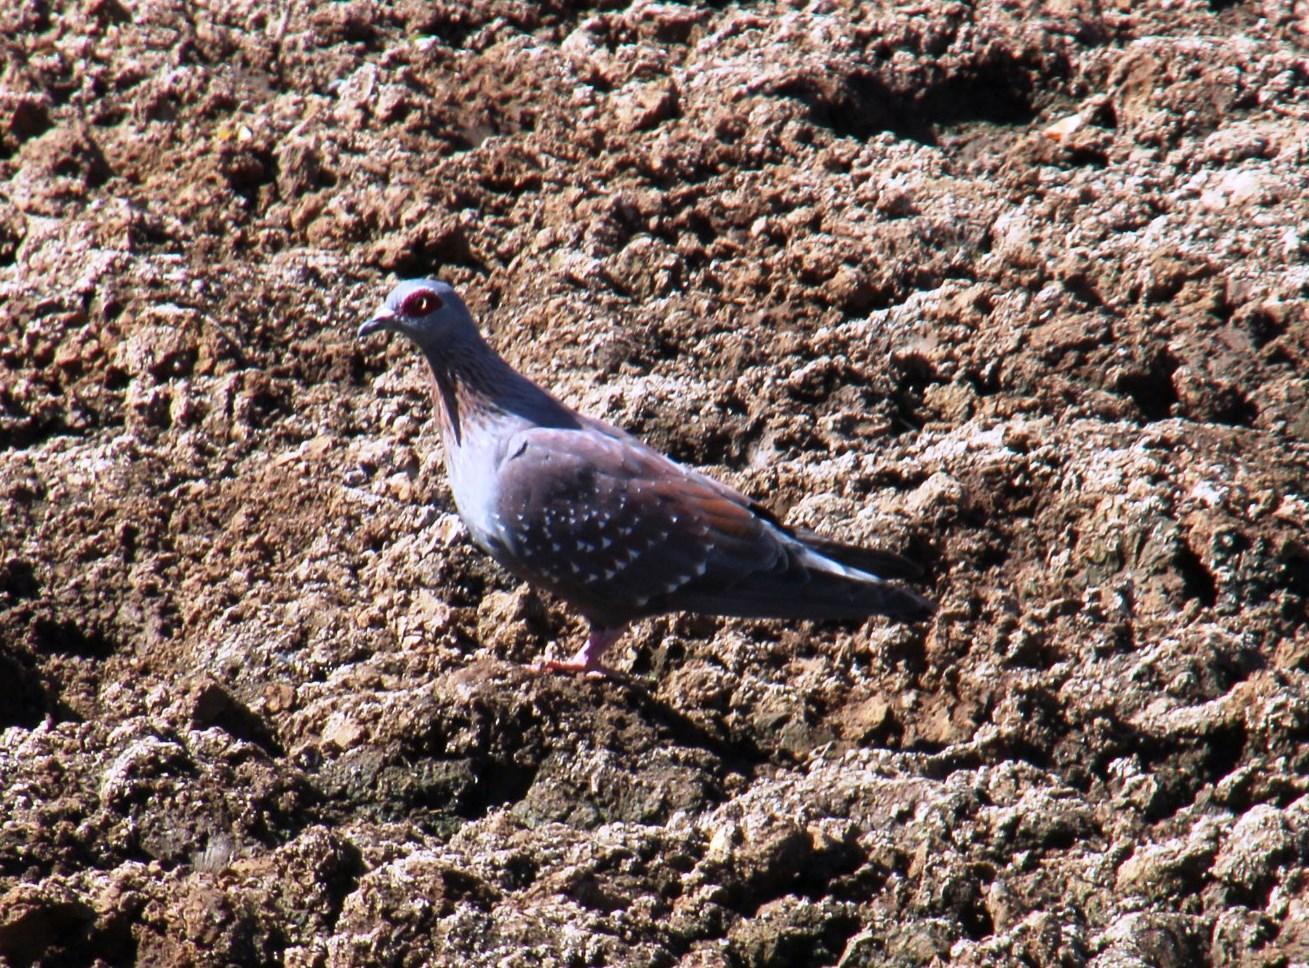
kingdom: Animalia
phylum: Chordata
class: Aves
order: Columbiformes
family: Columbidae
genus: Columba
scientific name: Columba guinea
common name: Speckled pigeon
